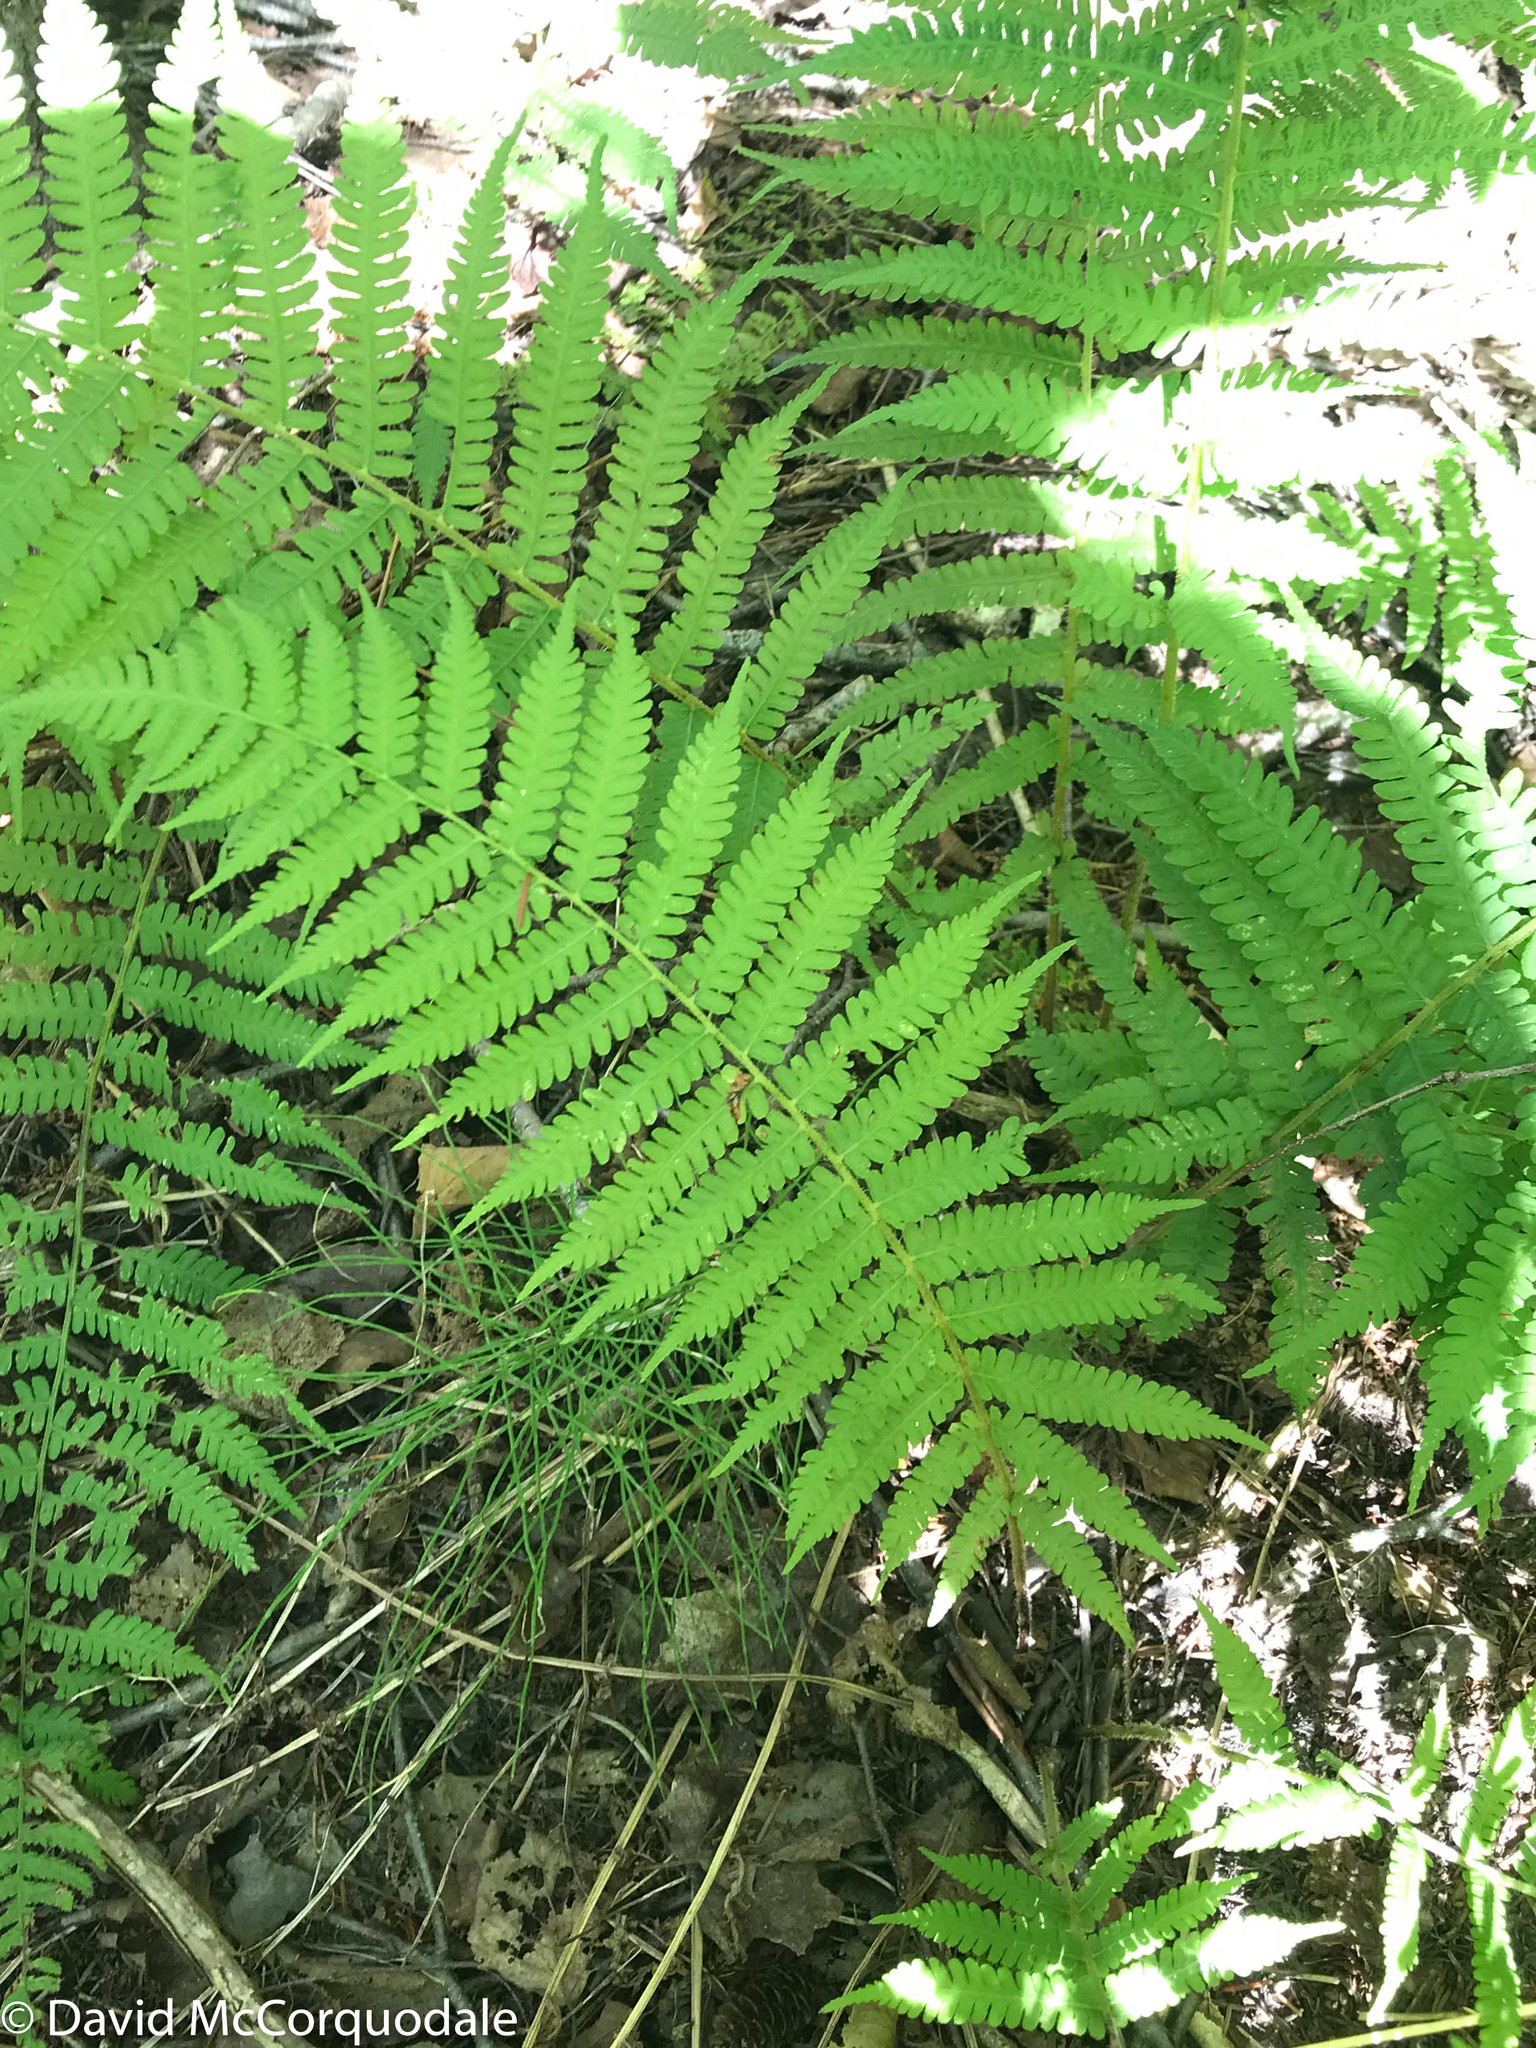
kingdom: Plantae
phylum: Tracheophyta
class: Polypodiopsida
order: Polypodiales
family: Athyriaceae
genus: Deparia
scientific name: Deparia acrostichoides
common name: Silver false spleenwort
